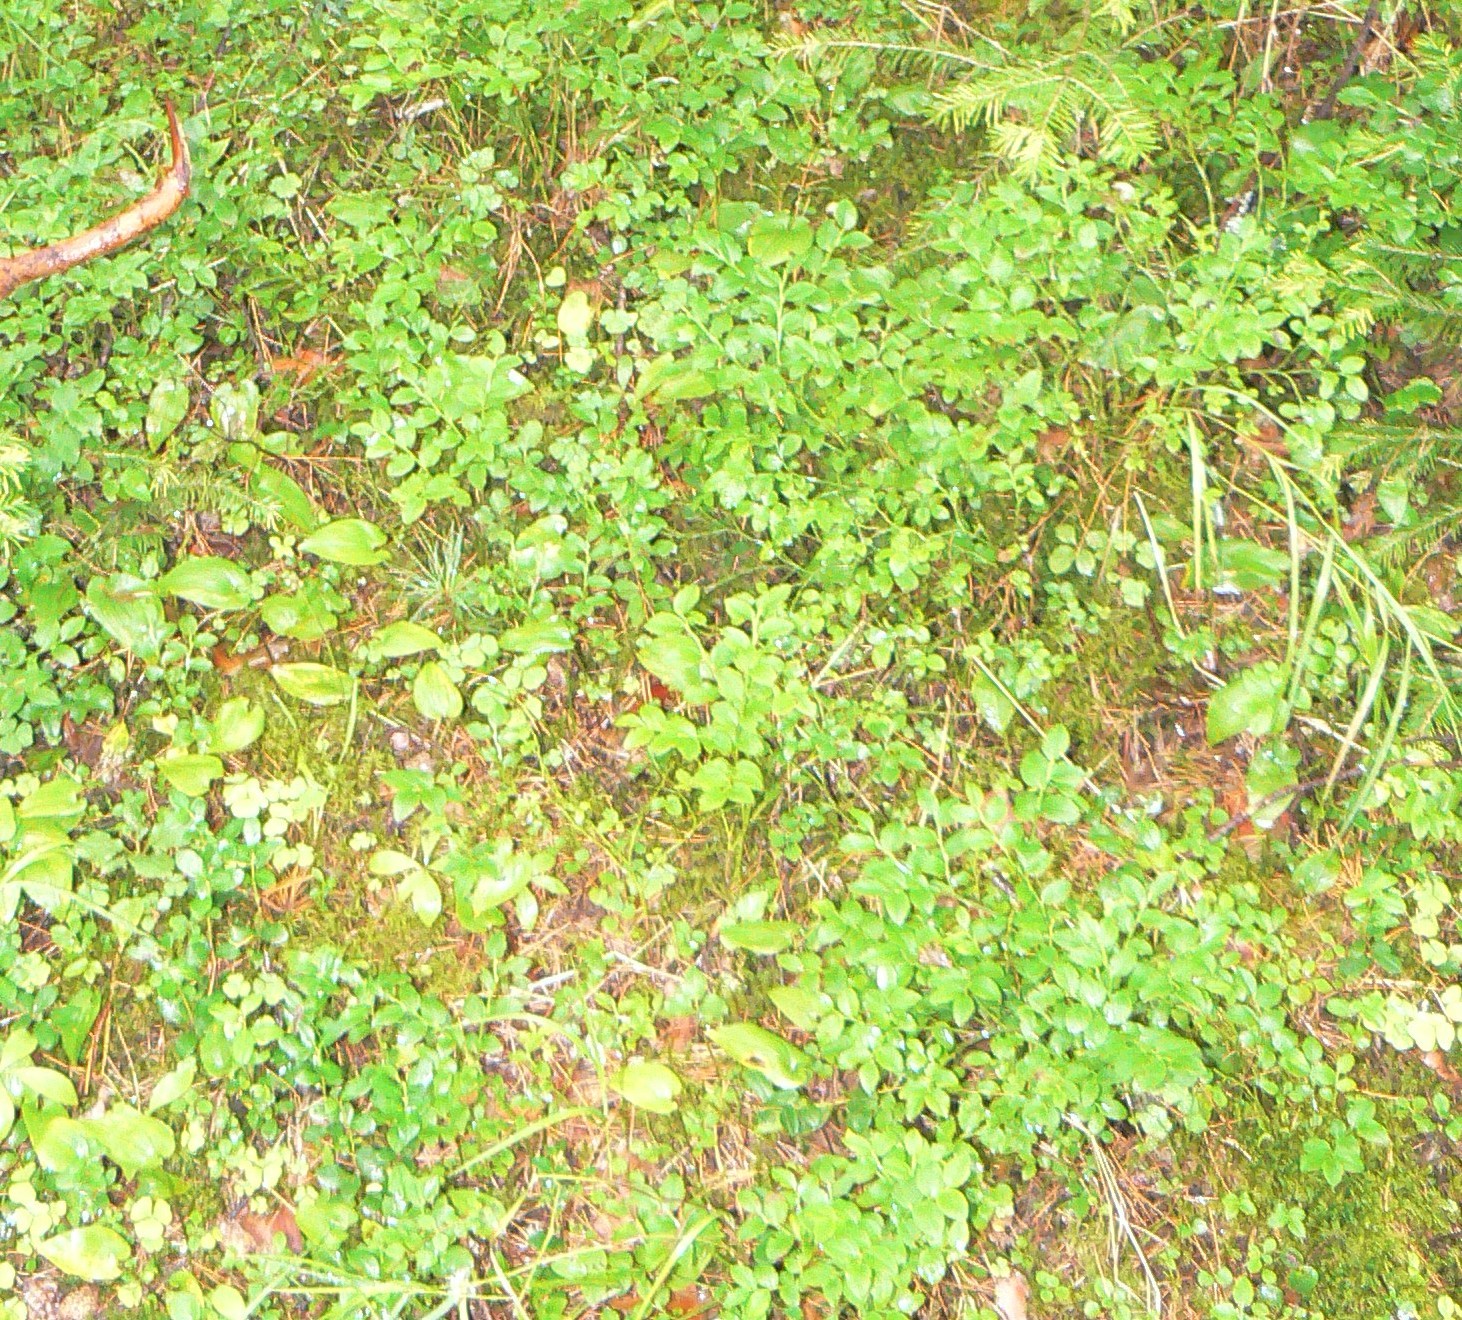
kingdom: Plantae
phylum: Tracheophyta
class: Magnoliopsida
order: Ericales
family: Ericaceae
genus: Vaccinium
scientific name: Vaccinium myrtillus
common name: Bilberry
